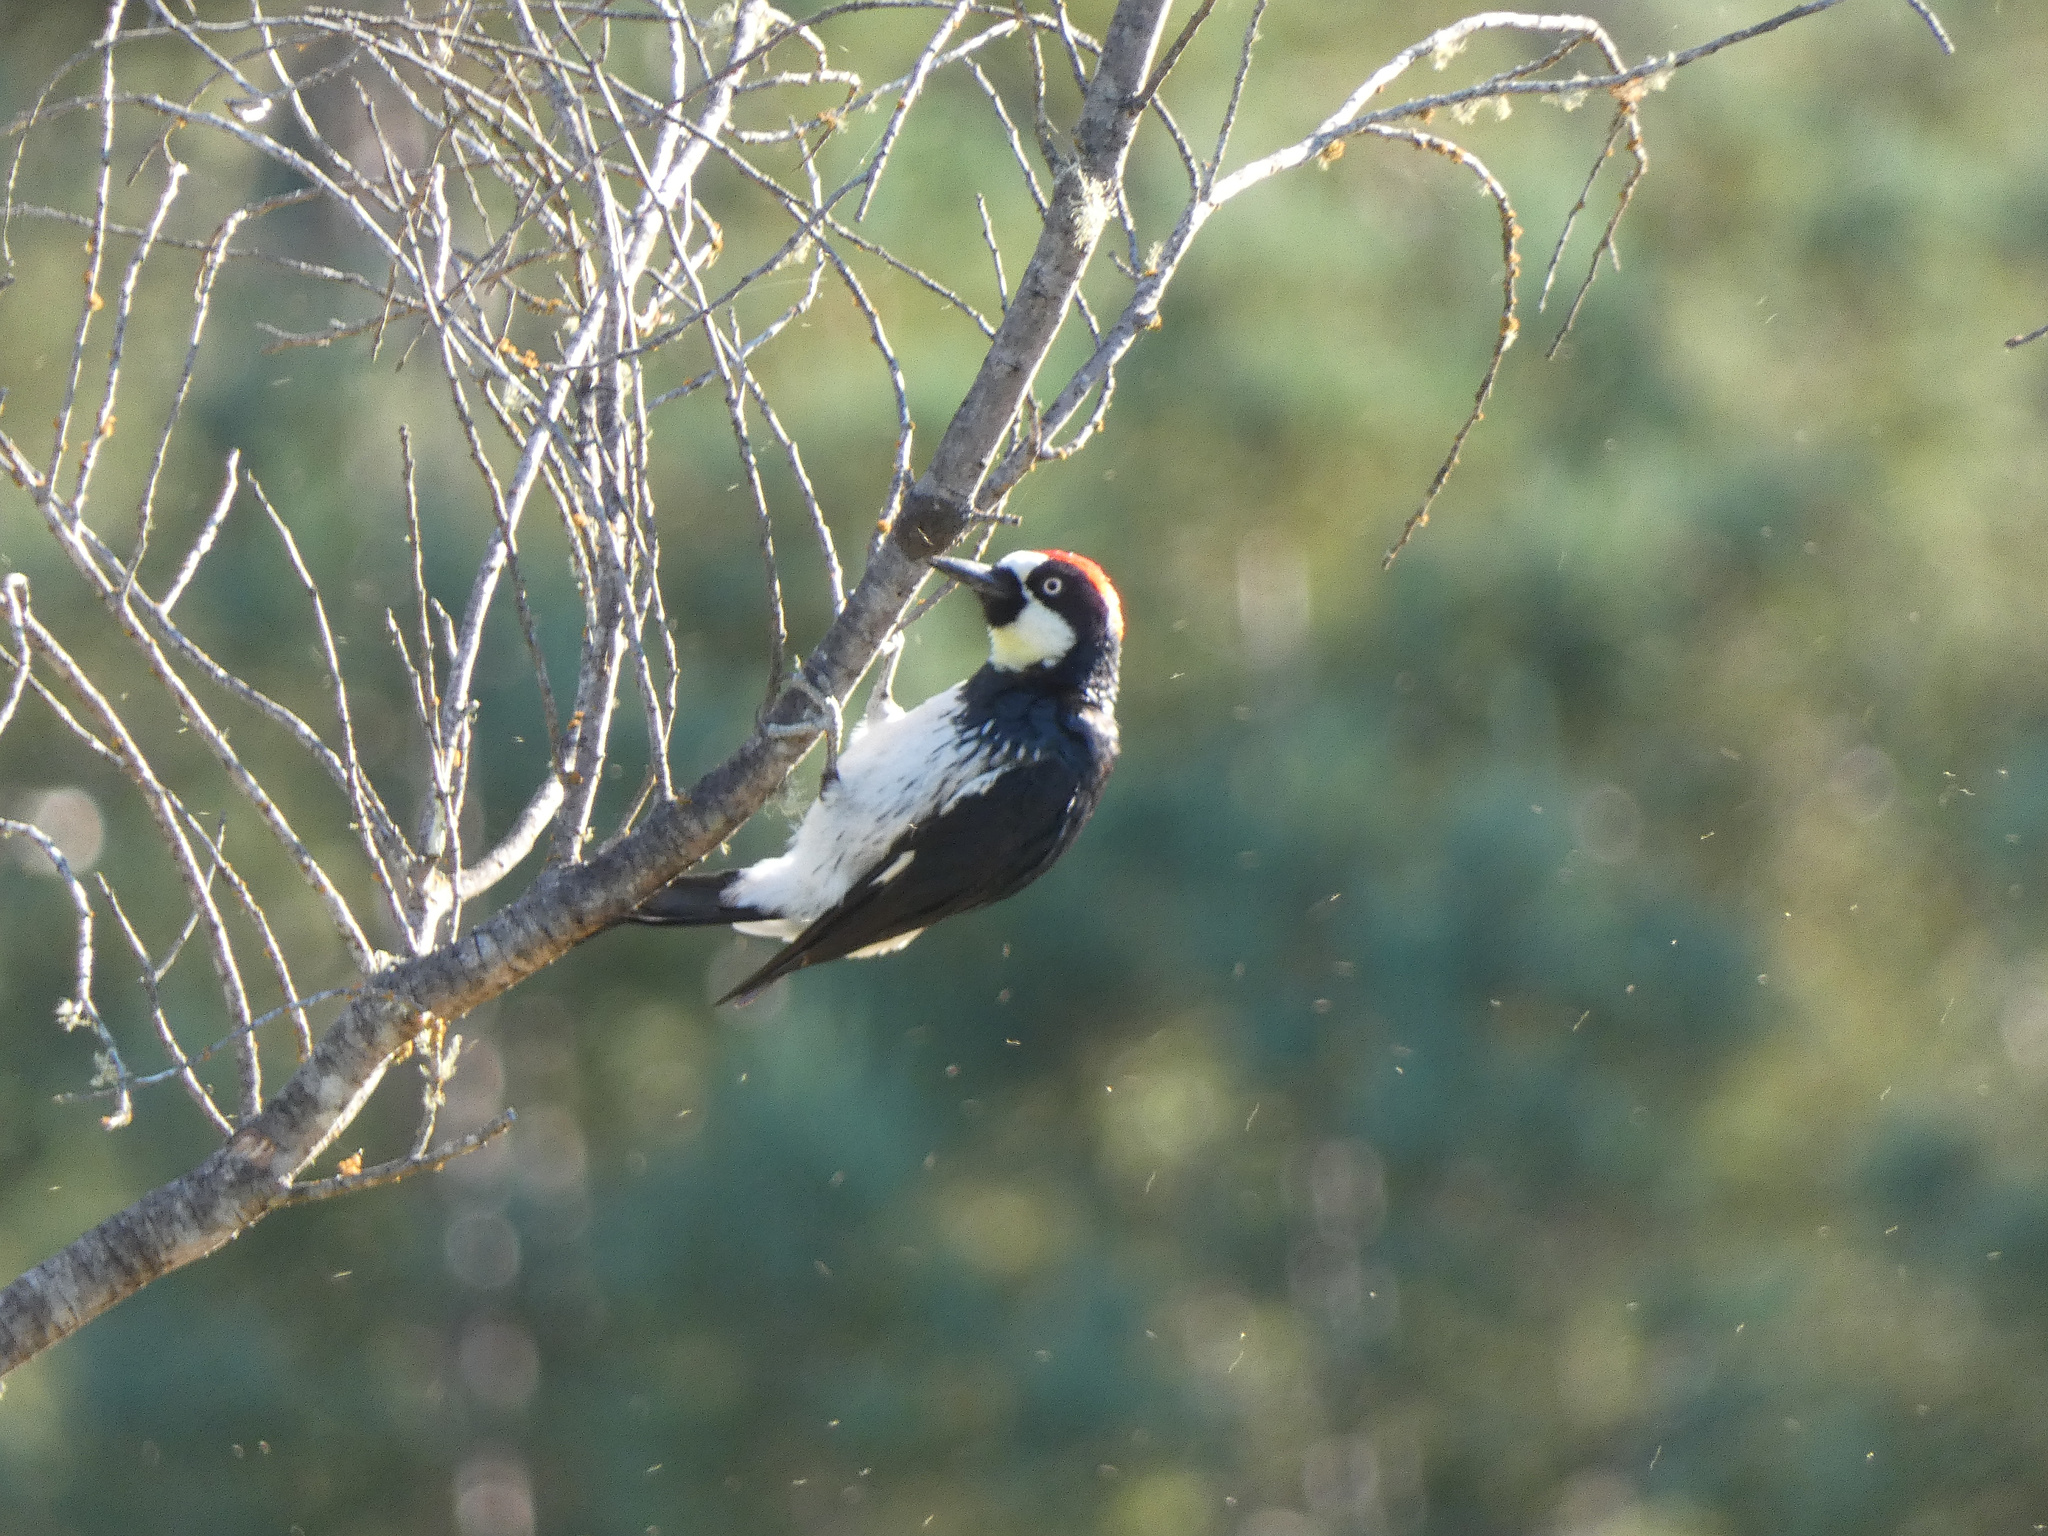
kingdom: Animalia
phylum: Chordata
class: Aves
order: Piciformes
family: Picidae
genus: Melanerpes
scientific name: Melanerpes formicivorus
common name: Acorn woodpecker
